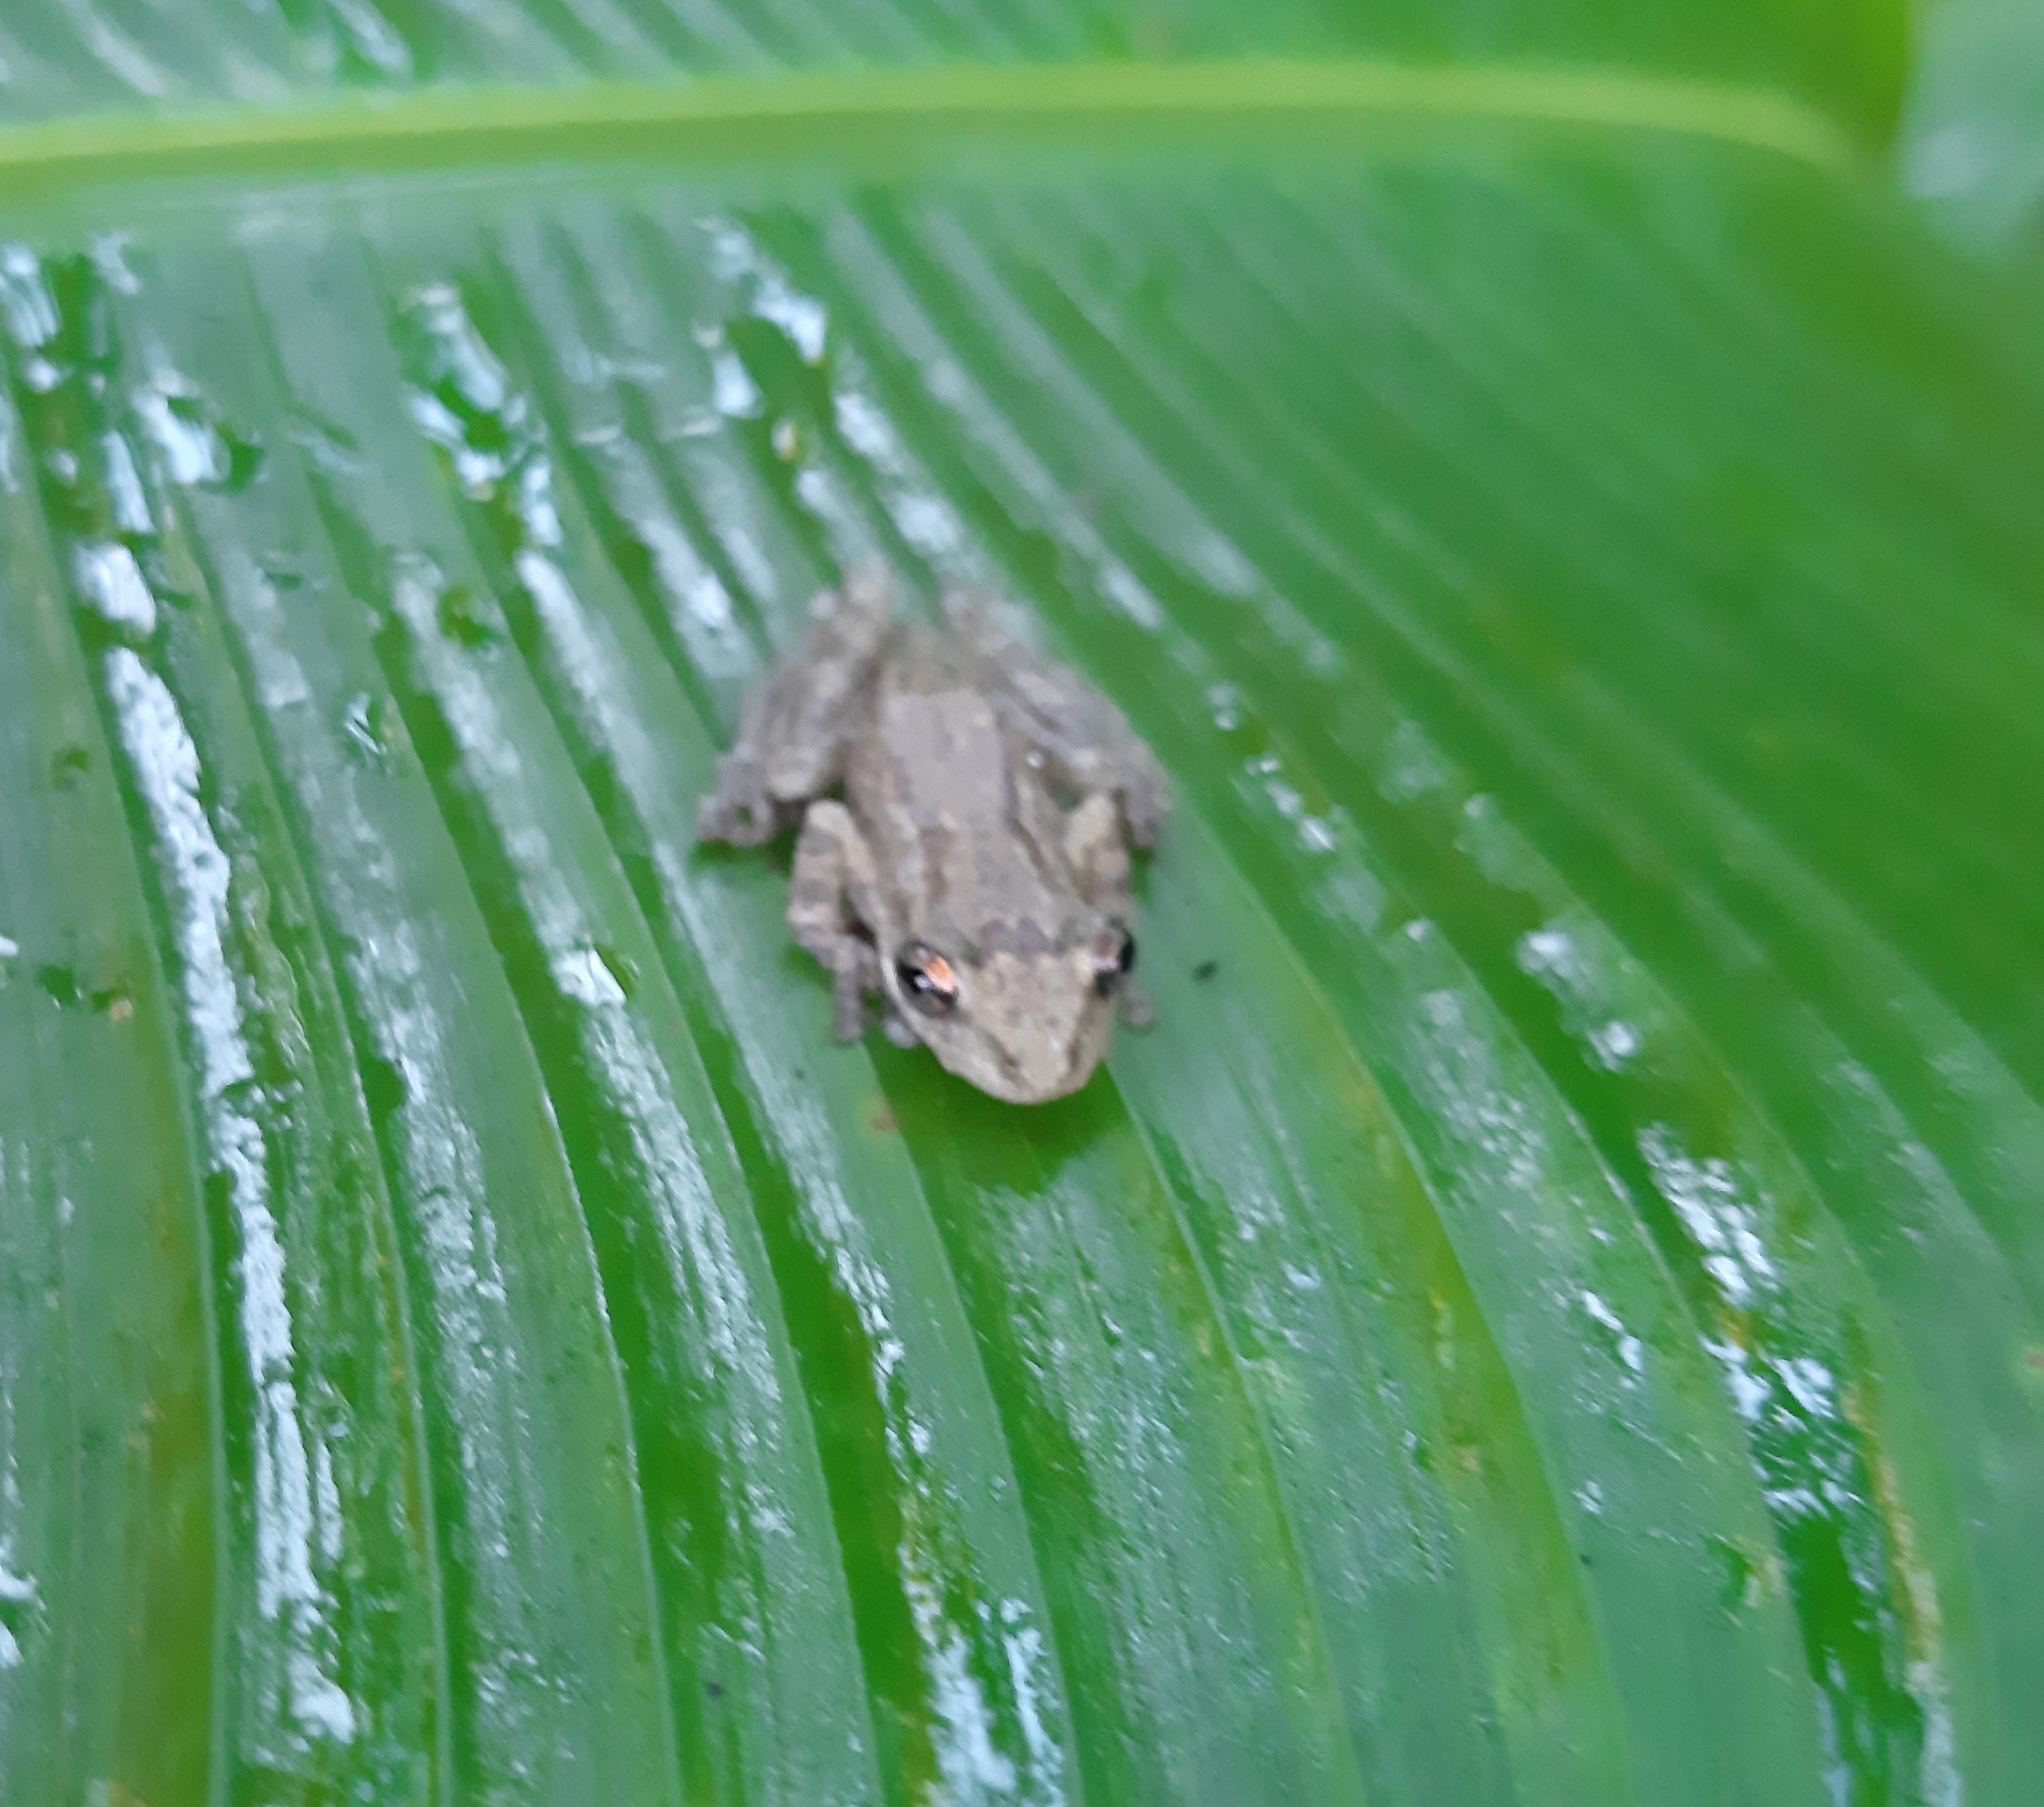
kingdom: Animalia
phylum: Chordata
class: Amphibia
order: Anura
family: Hylidae
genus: Scinax
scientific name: Scinax staufferi
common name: Stauffer's long-nosed treefrog
